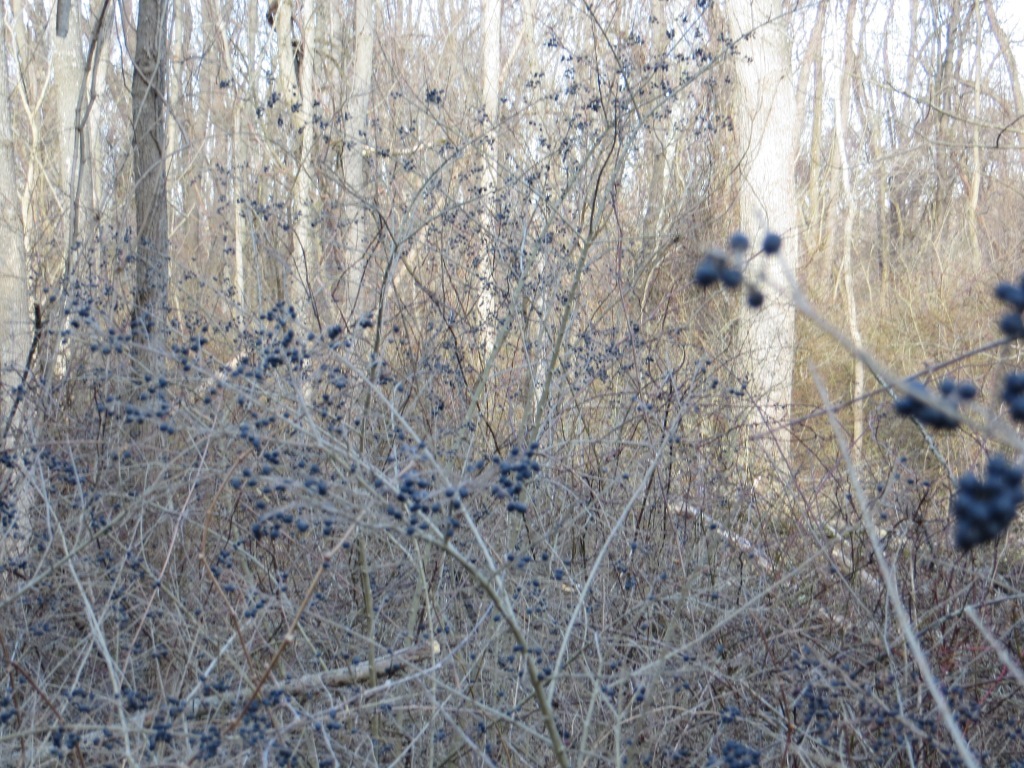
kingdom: Plantae
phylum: Tracheophyta
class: Magnoliopsida
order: Lamiales
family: Oleaceae
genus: Ligustrum
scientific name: Ligustrum
